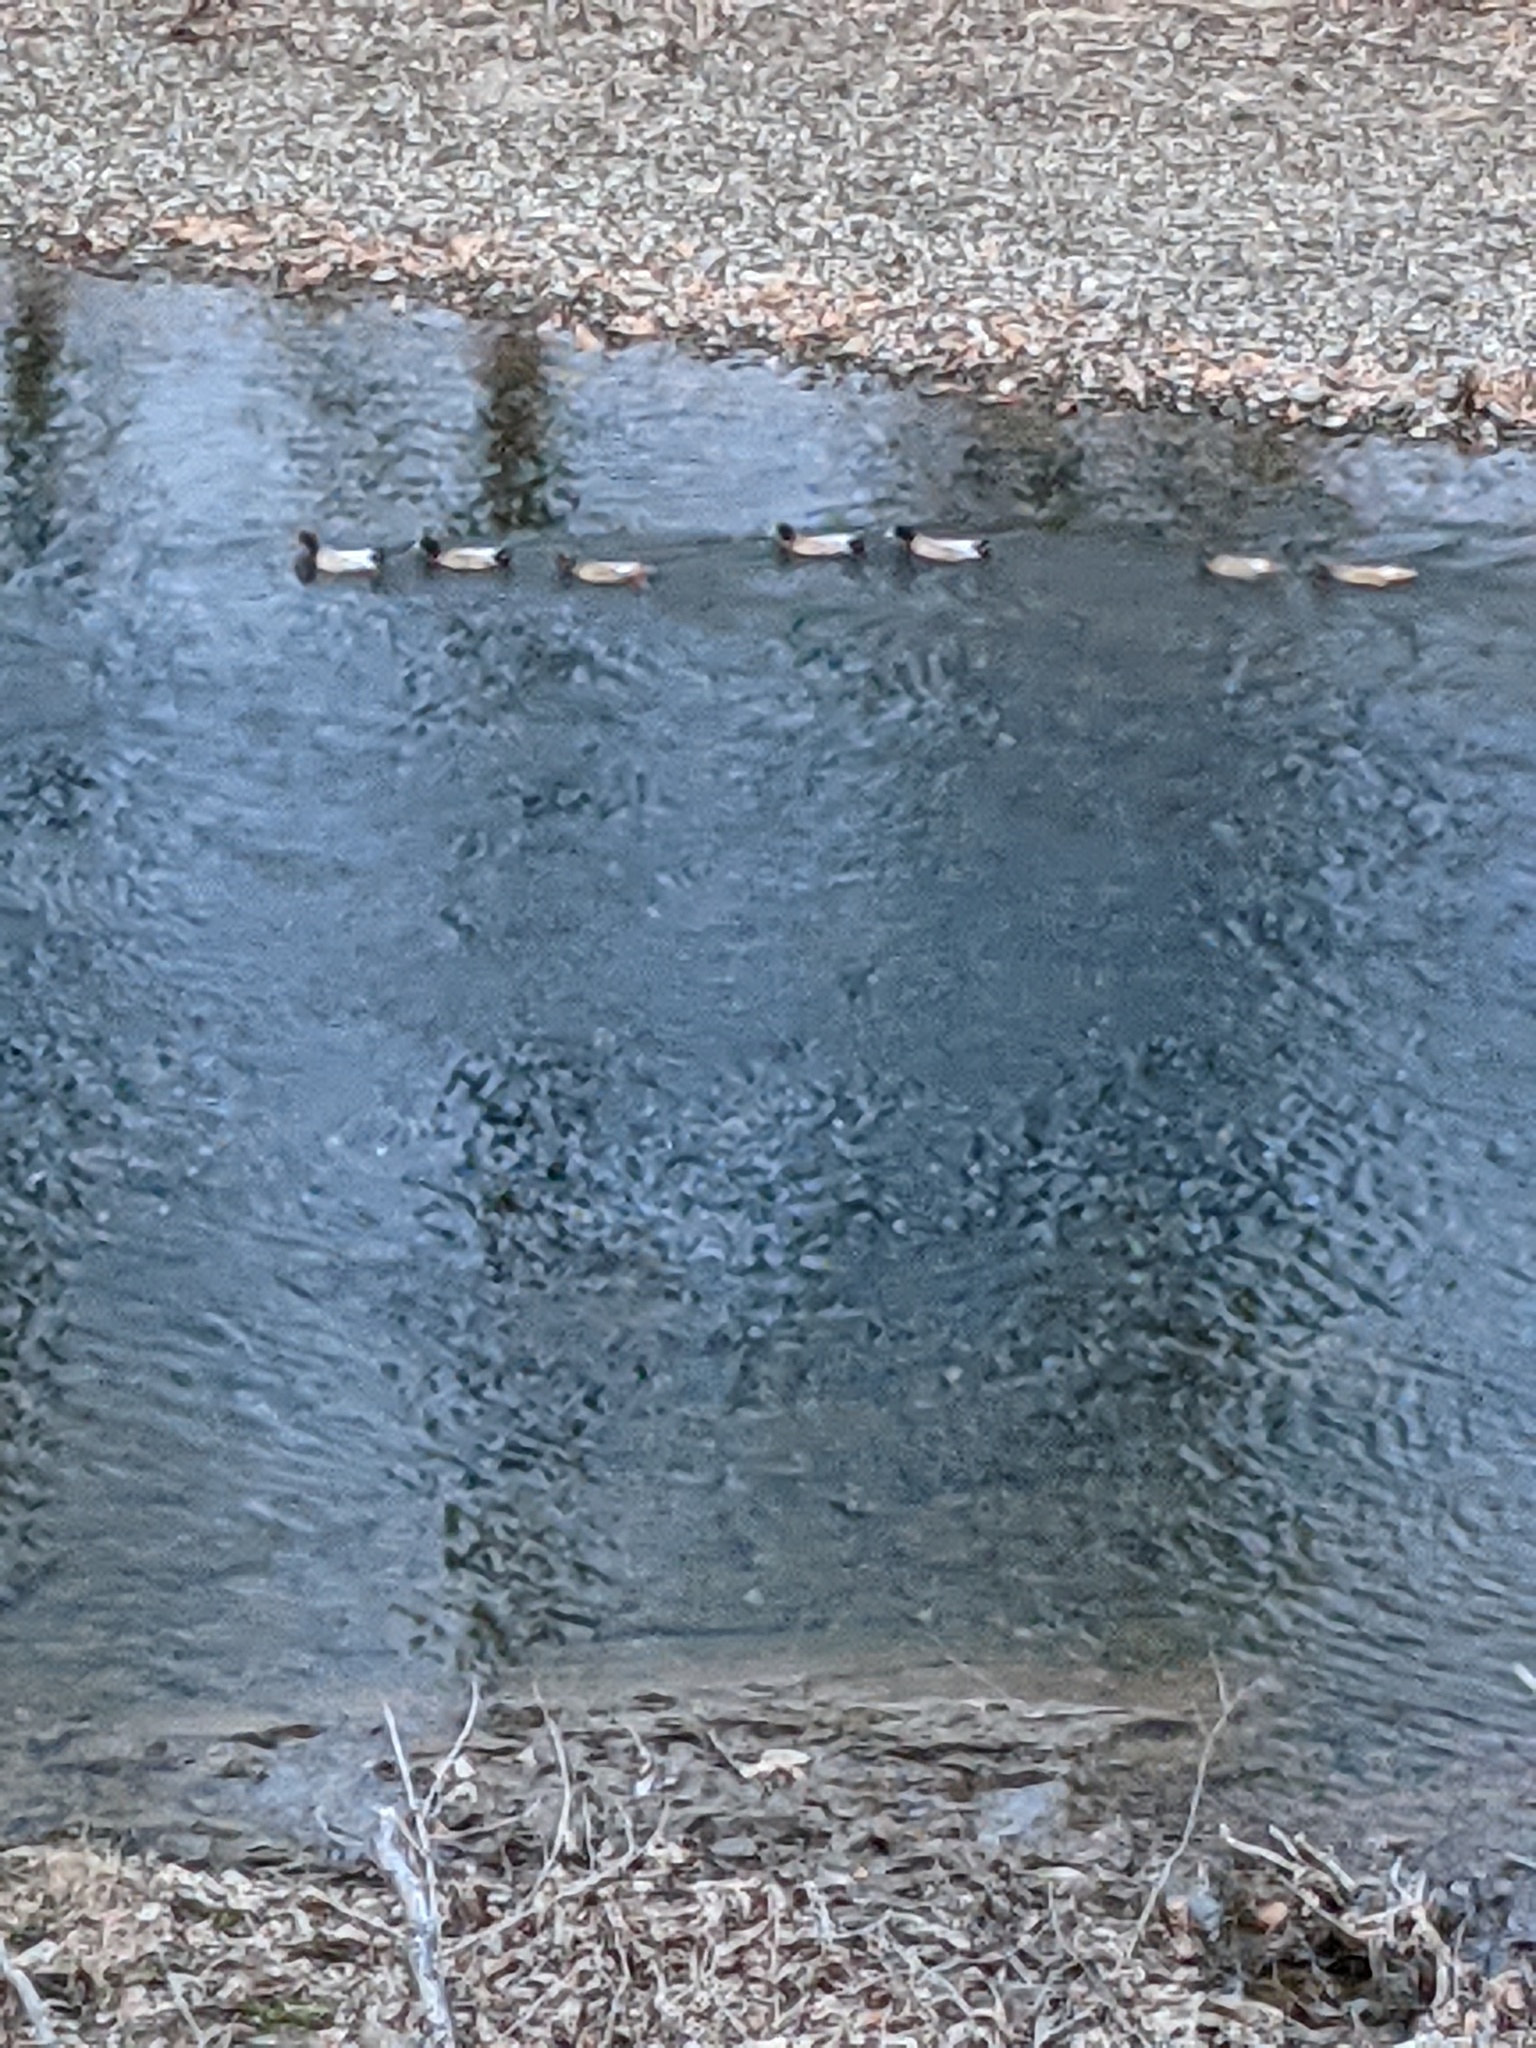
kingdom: Animalia
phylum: Chordata
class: Aves
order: Anseriformes
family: Anatidae
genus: Anas
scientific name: Anas platyrhynchos
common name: Mallard
